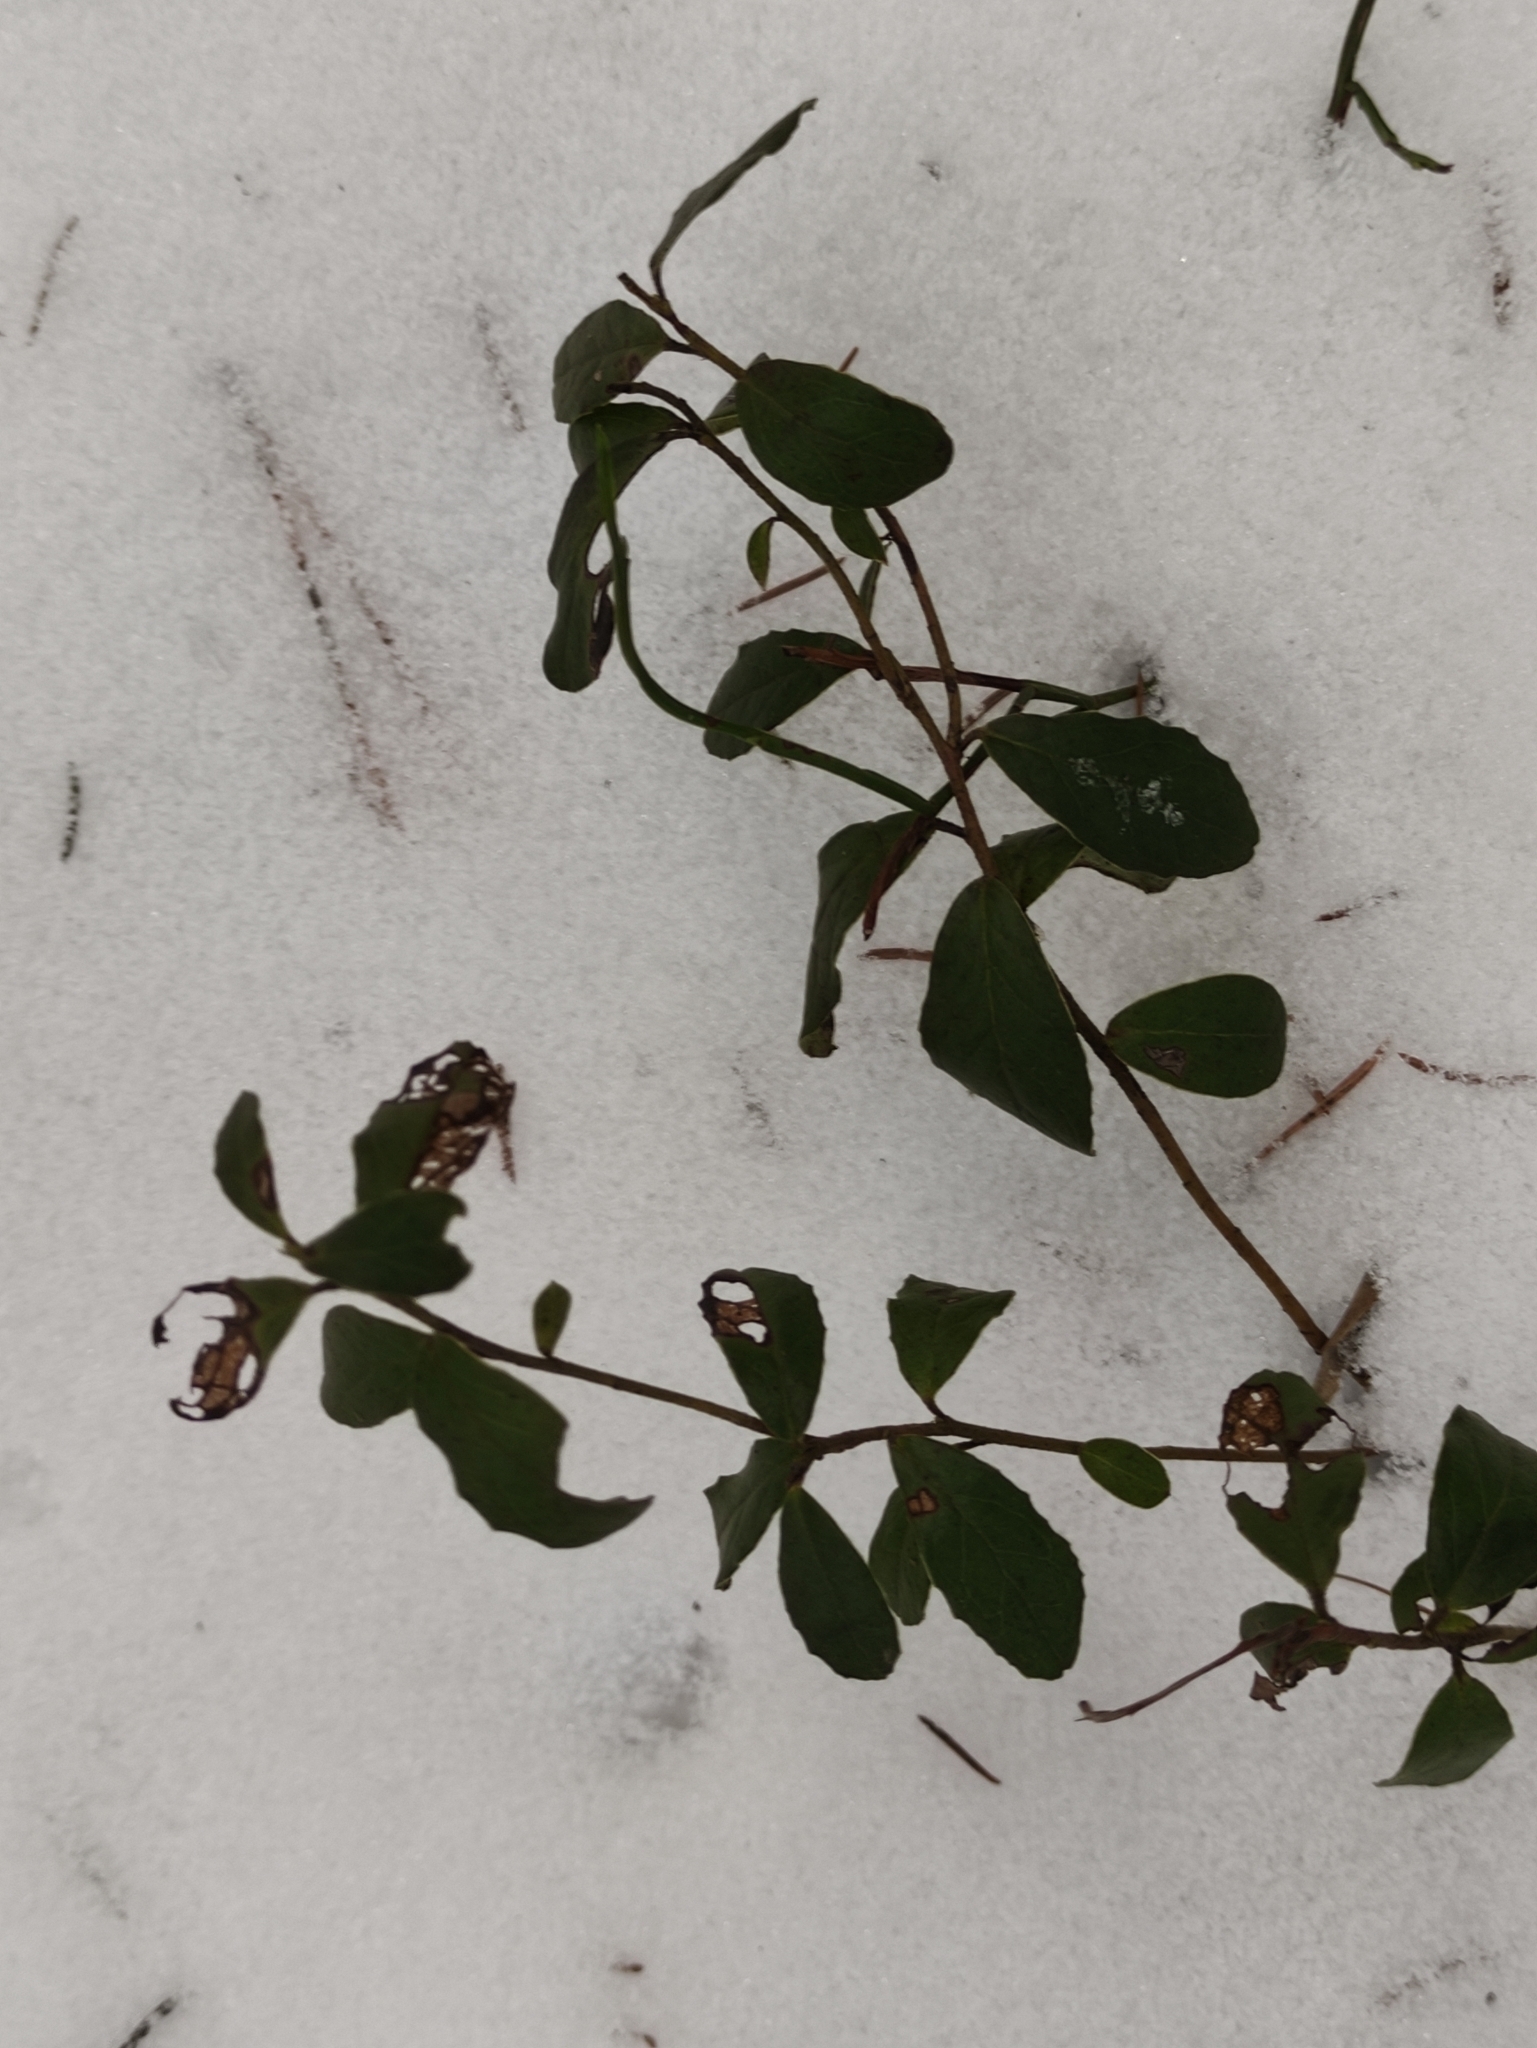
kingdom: Plantae
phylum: Tracheophyta
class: Magnoliopsida
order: Ericales
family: Ericaceae
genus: Vaccinium
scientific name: Vaccinium vitis-idaea
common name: Cowberry
